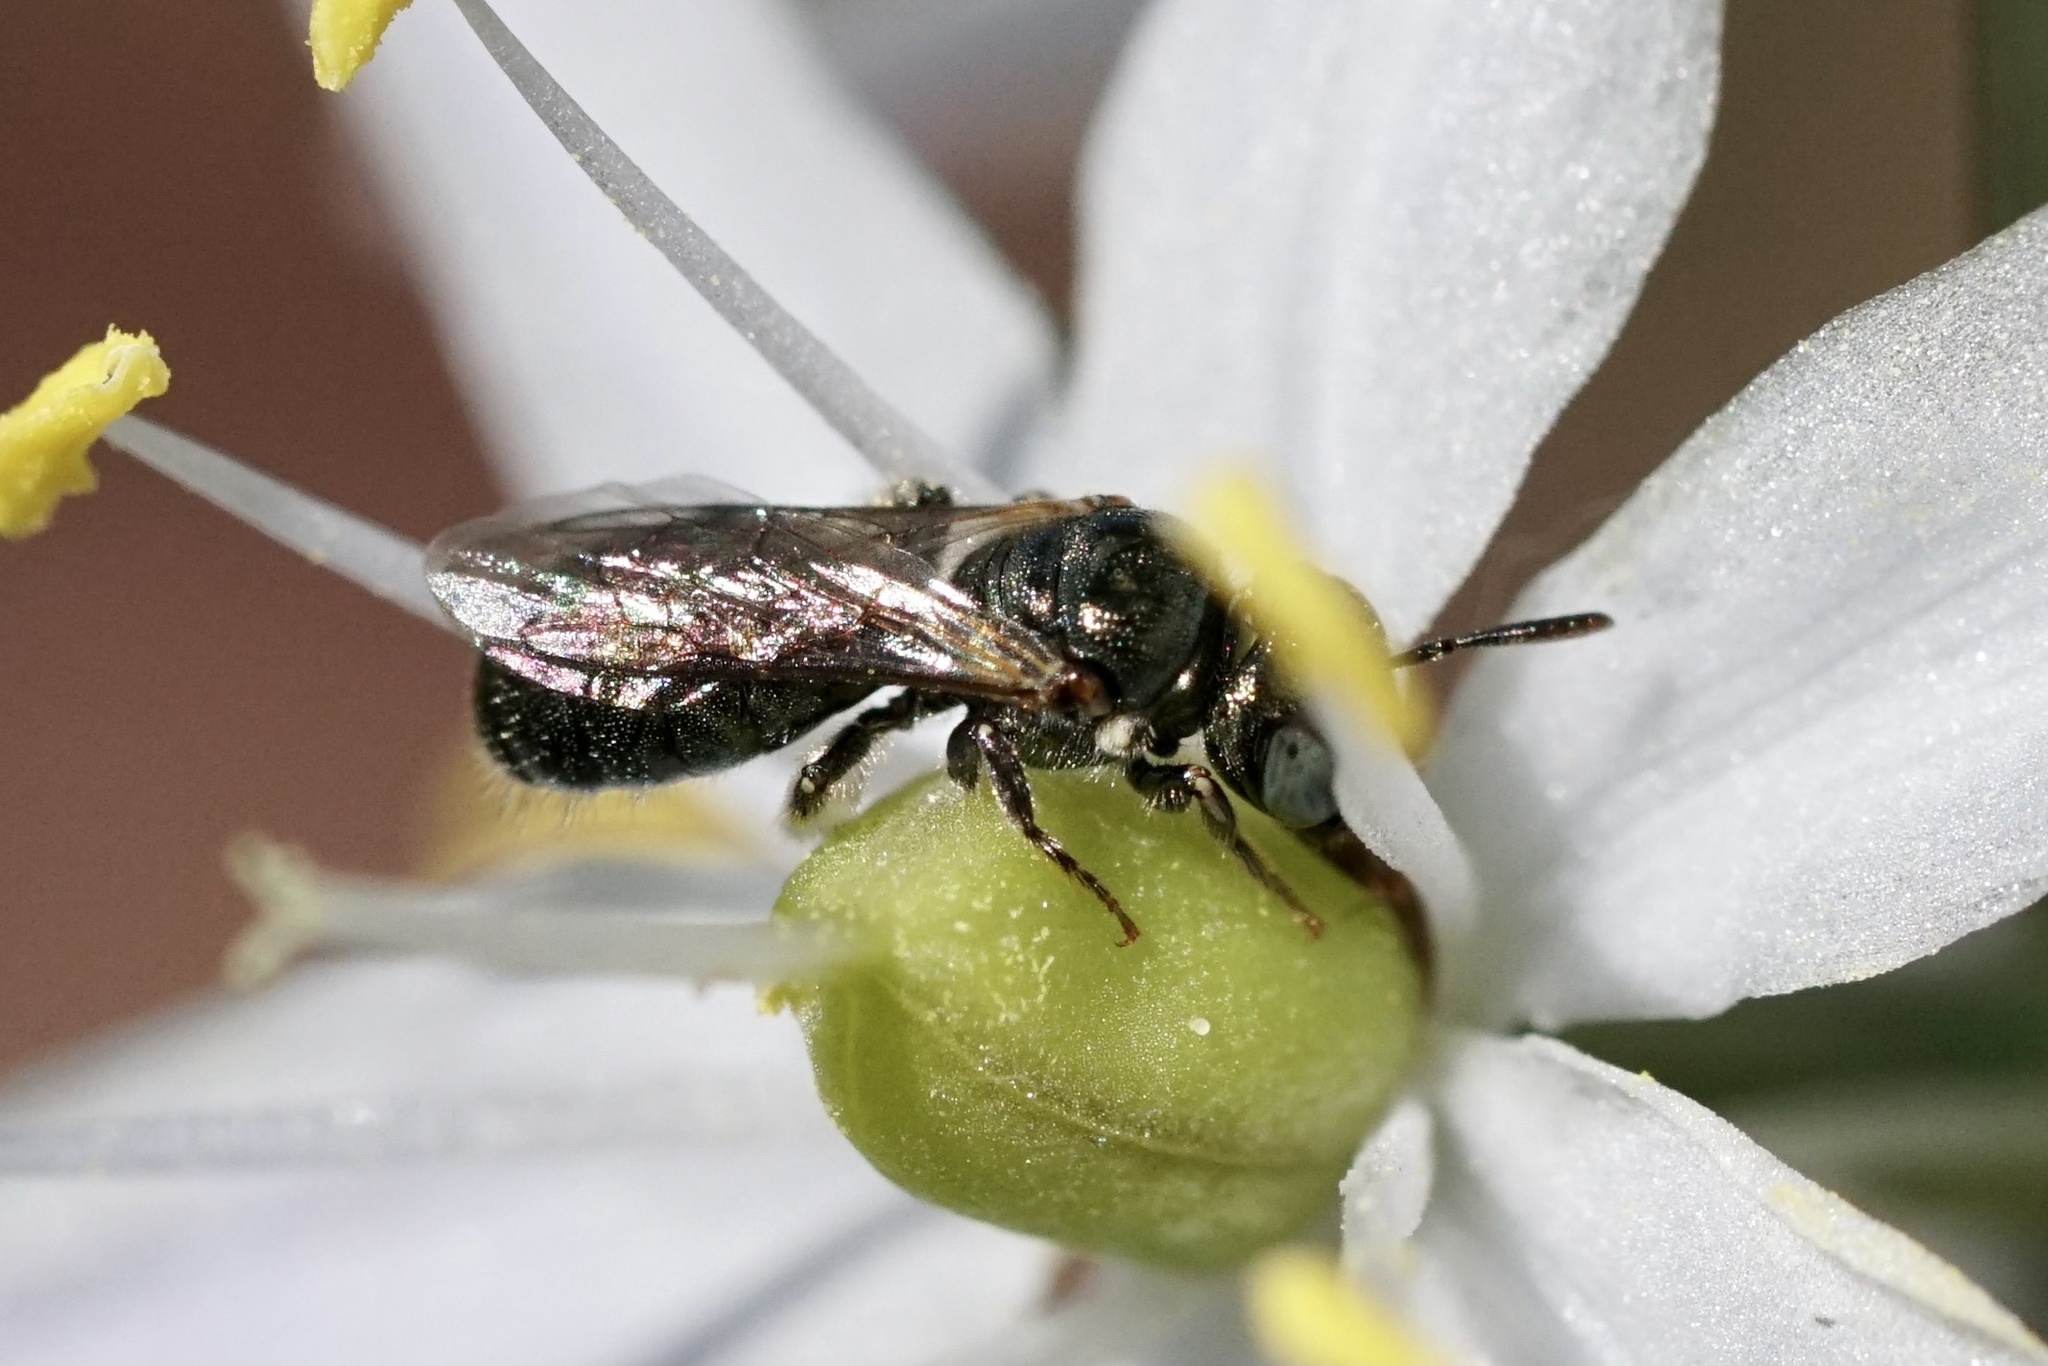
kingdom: Animalia
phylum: Arthropoda
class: Insecta
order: Hymenoptera
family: Apidae
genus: Ceratina
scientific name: Ceratina strenua
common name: Nimble carpenter bee
